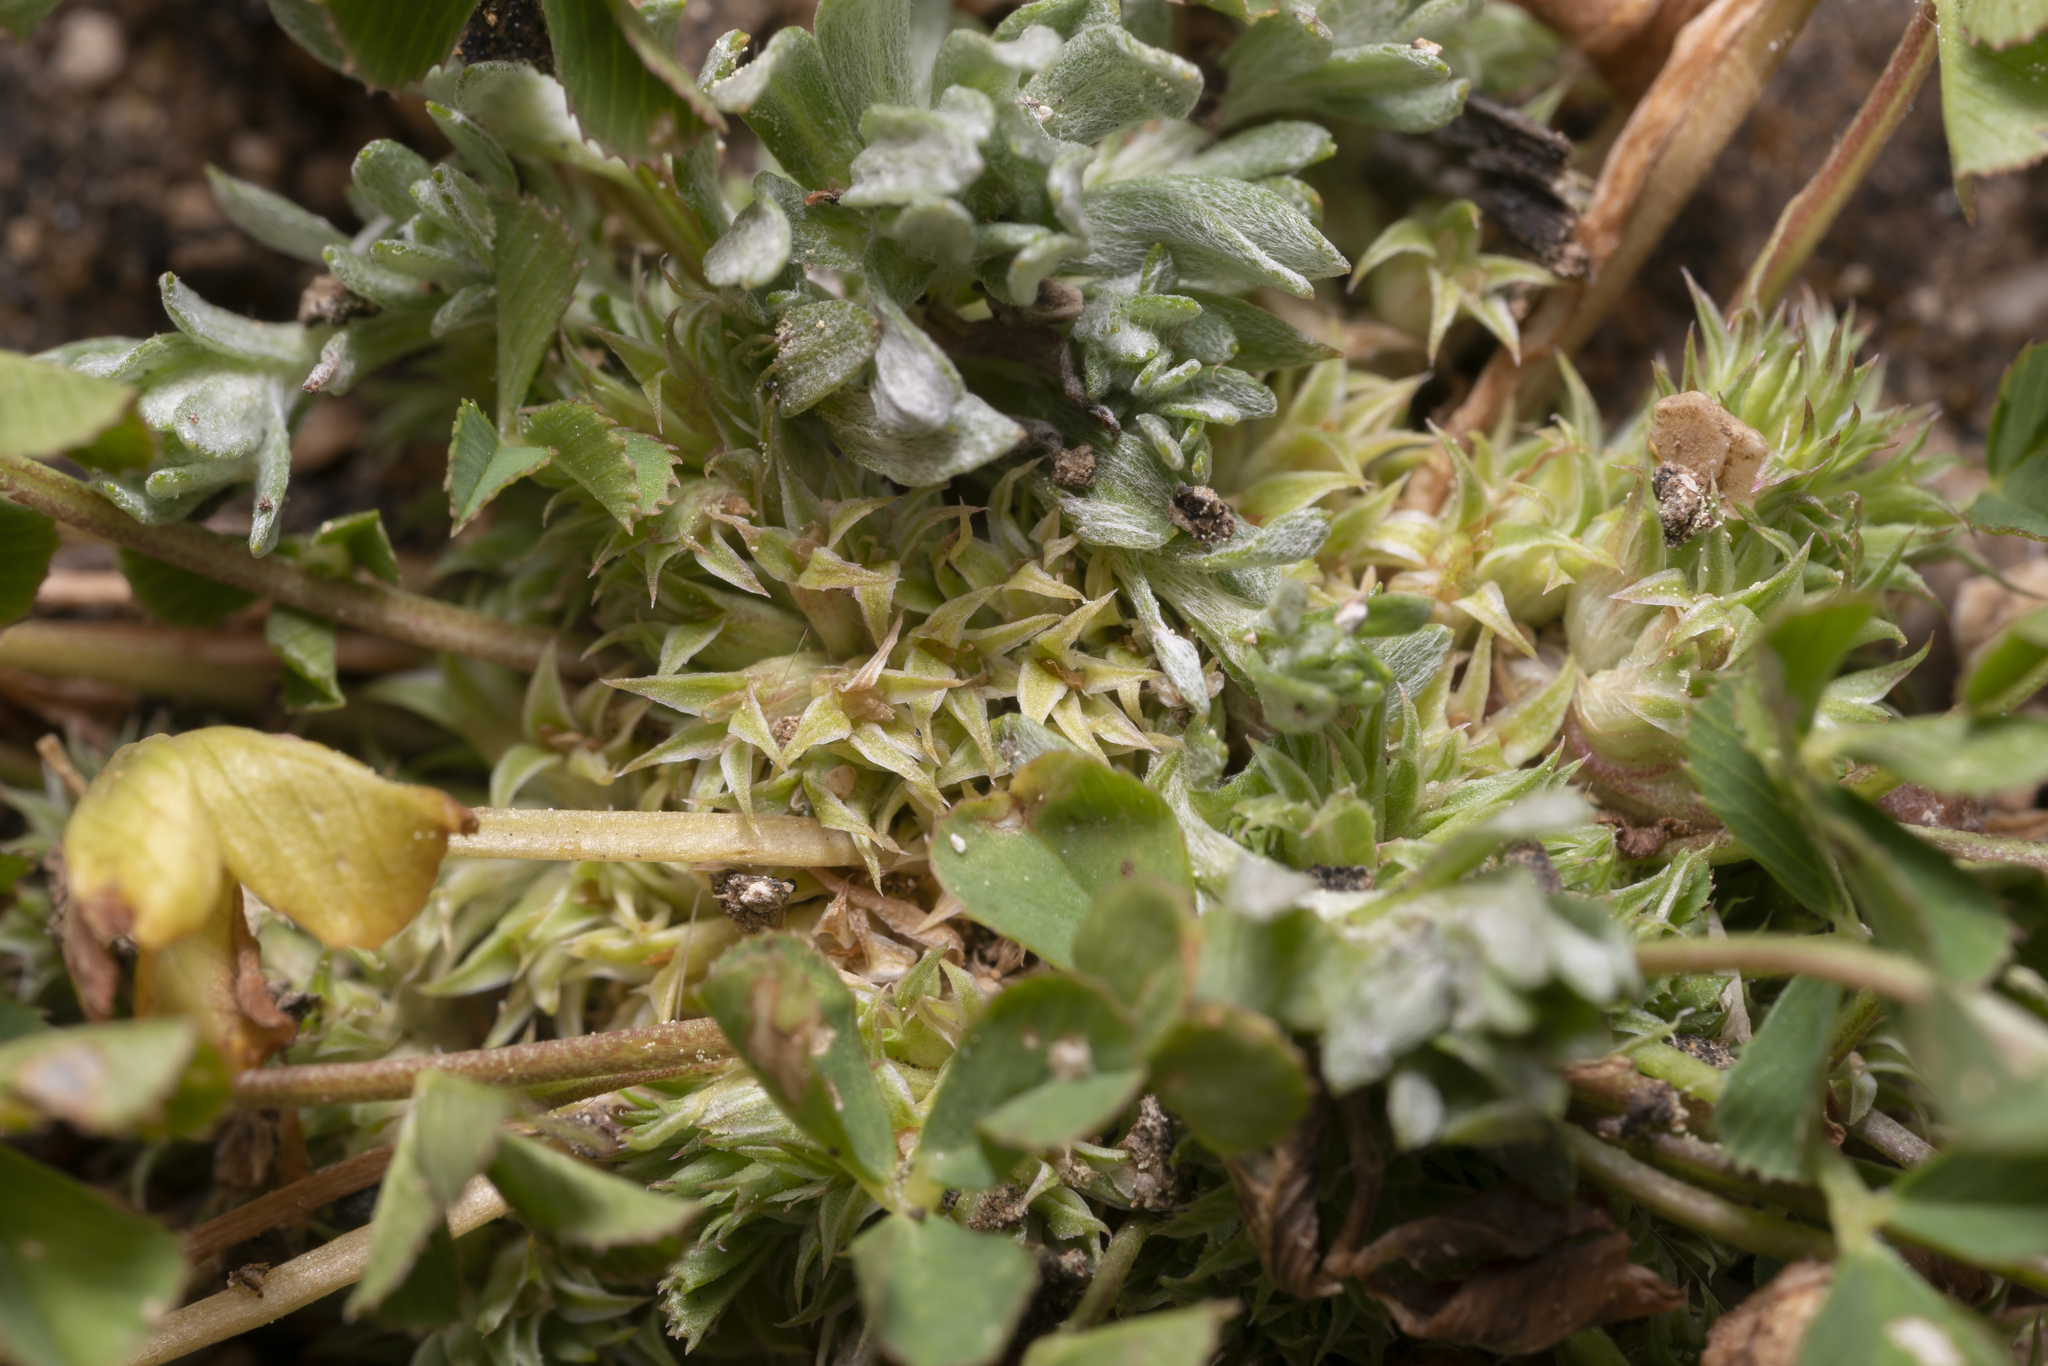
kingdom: Plantae
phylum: Tracheophyta
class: Magnoliopsida
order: Fabales
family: Fabaceae
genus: Trifolium
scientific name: Trifolium suffocatum
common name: Suffocated clover
